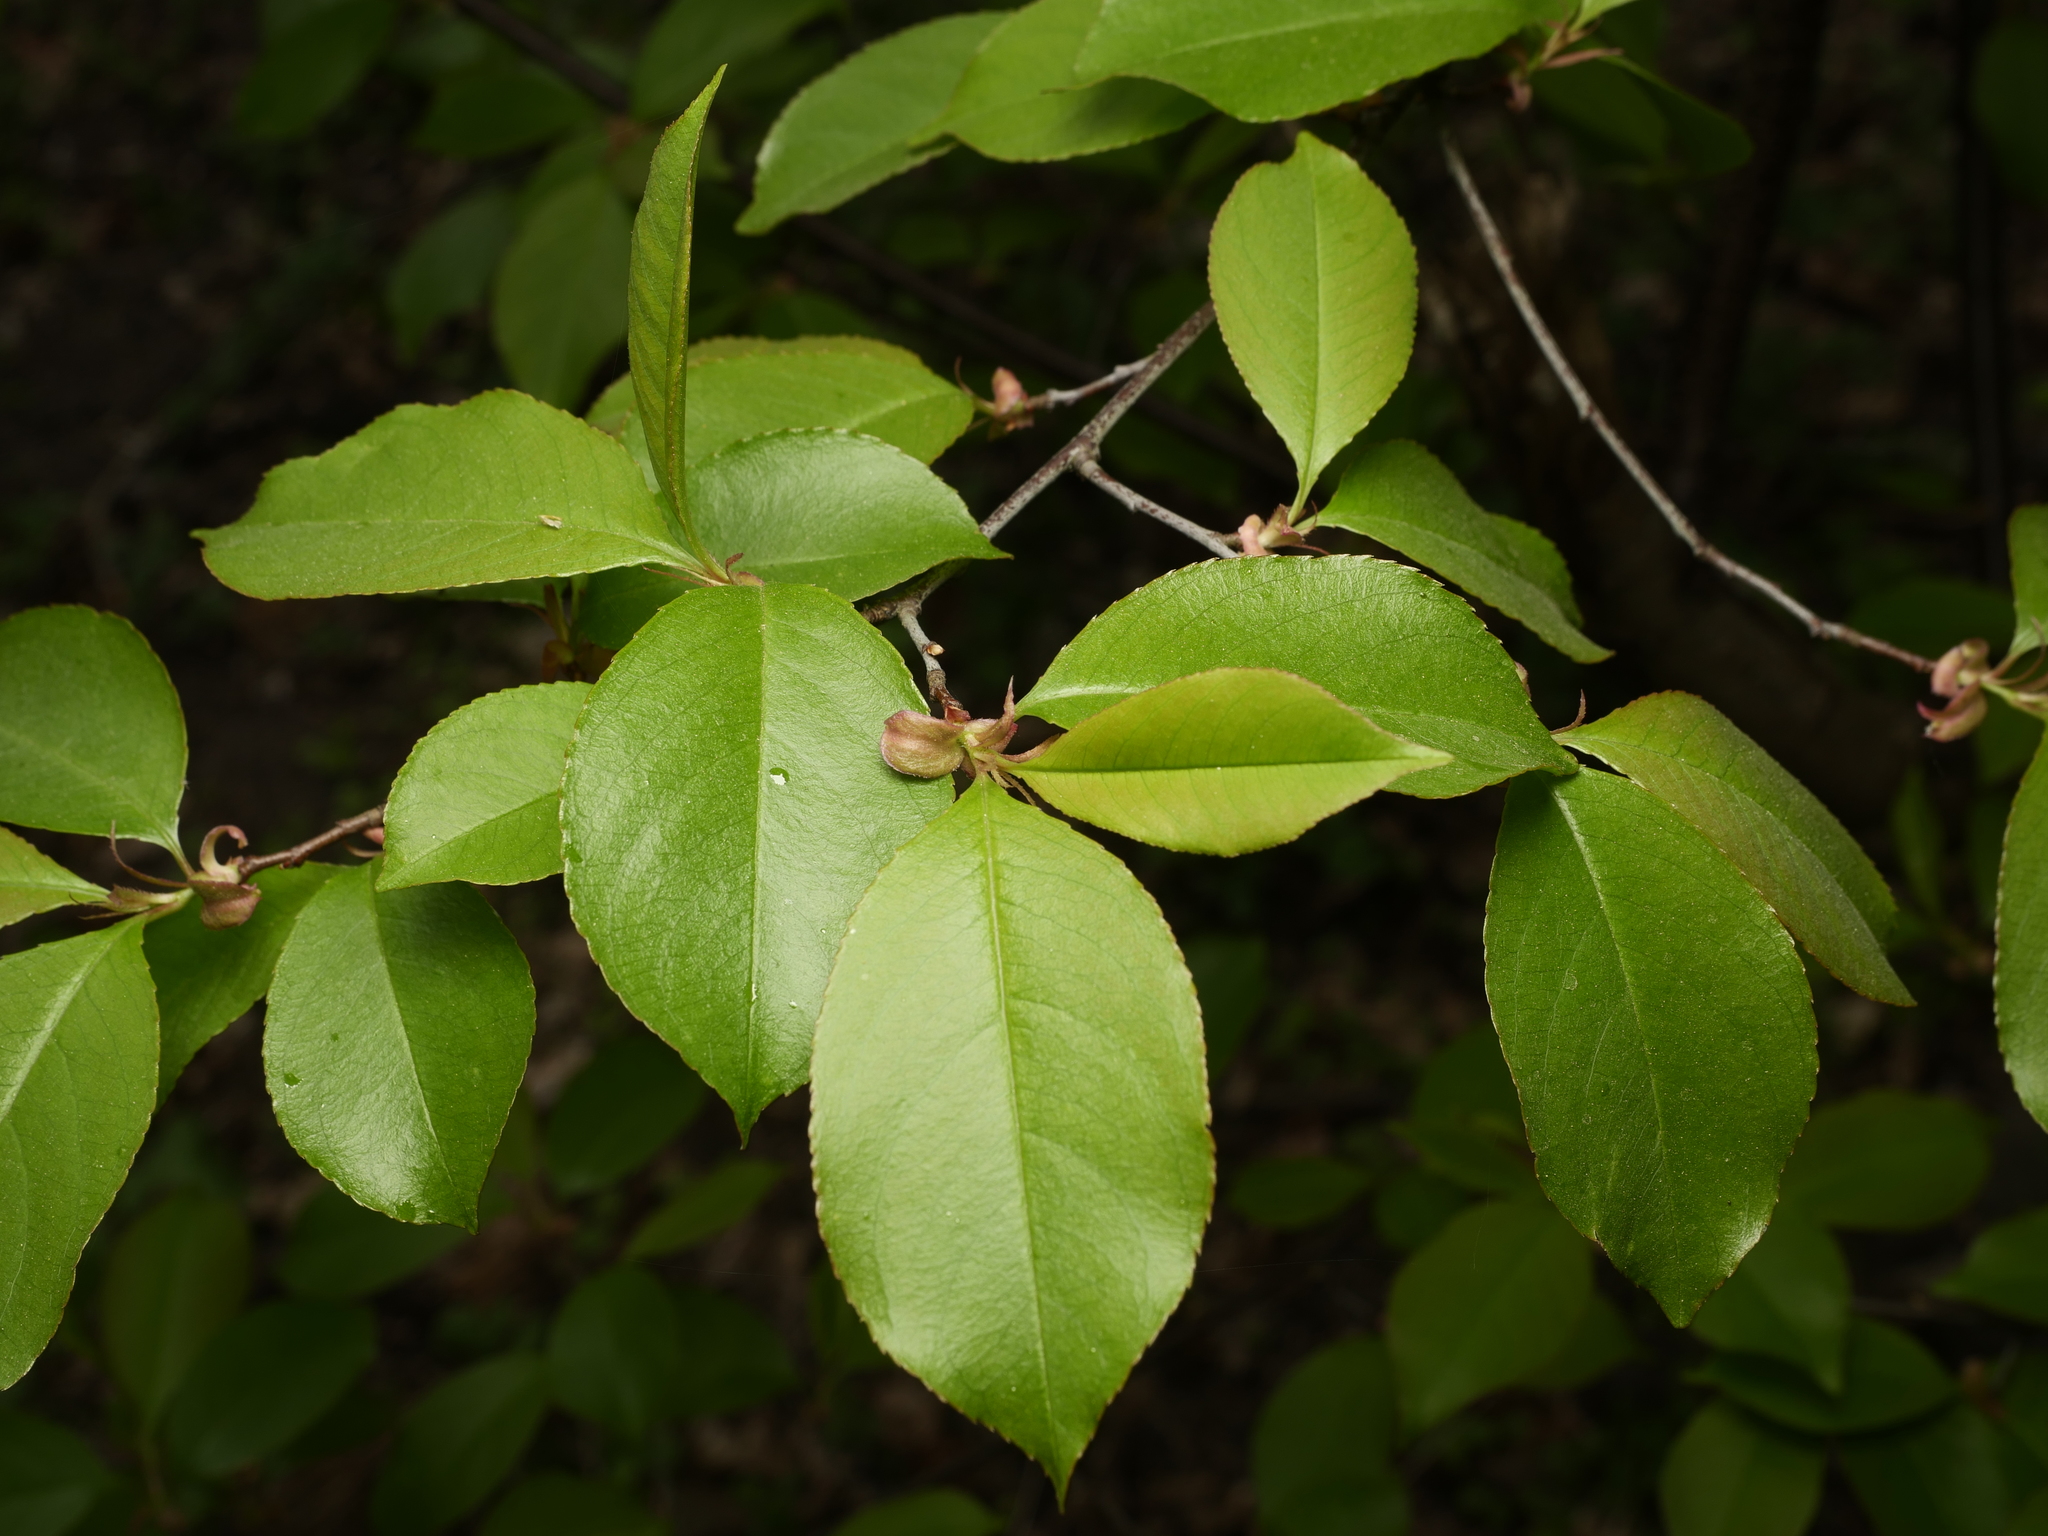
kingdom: Plantae
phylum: Tracheophyta
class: Magnoliopsida
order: Rosales
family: Rosaceae
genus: Prunus
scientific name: Prunus serotina
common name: Black cherry
